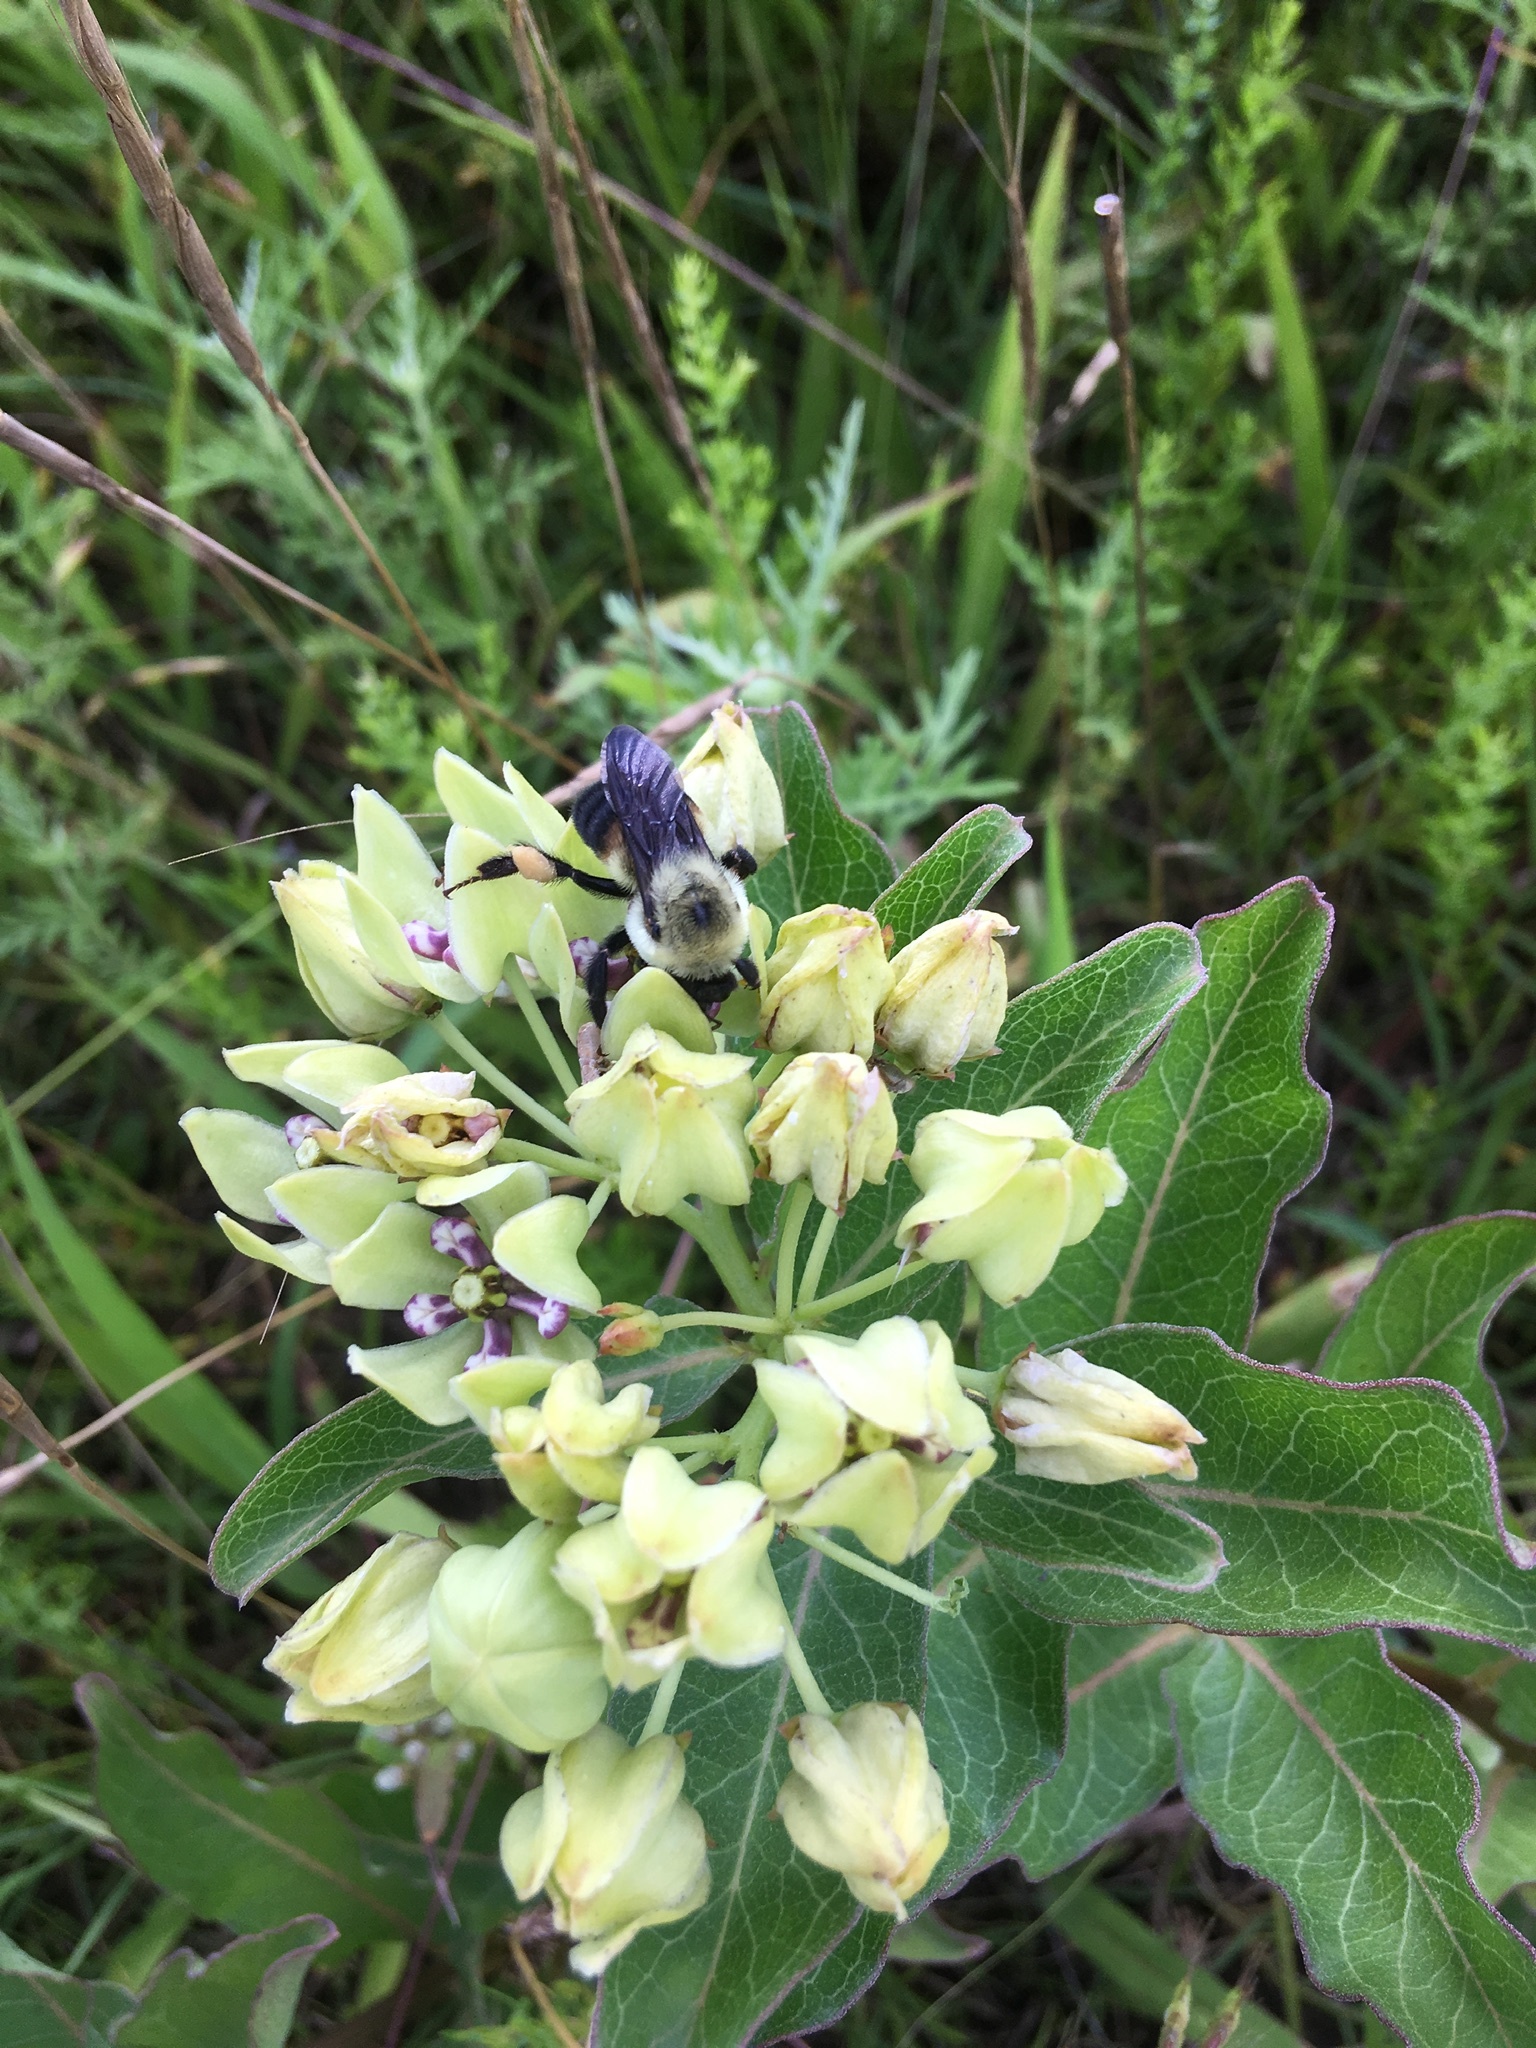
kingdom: Animalia
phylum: Arthropoda
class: Insecta
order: Hymenoptera
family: Apidae
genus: Bombus
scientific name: Bombus griseocollis
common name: Brown-belted bumble bee
